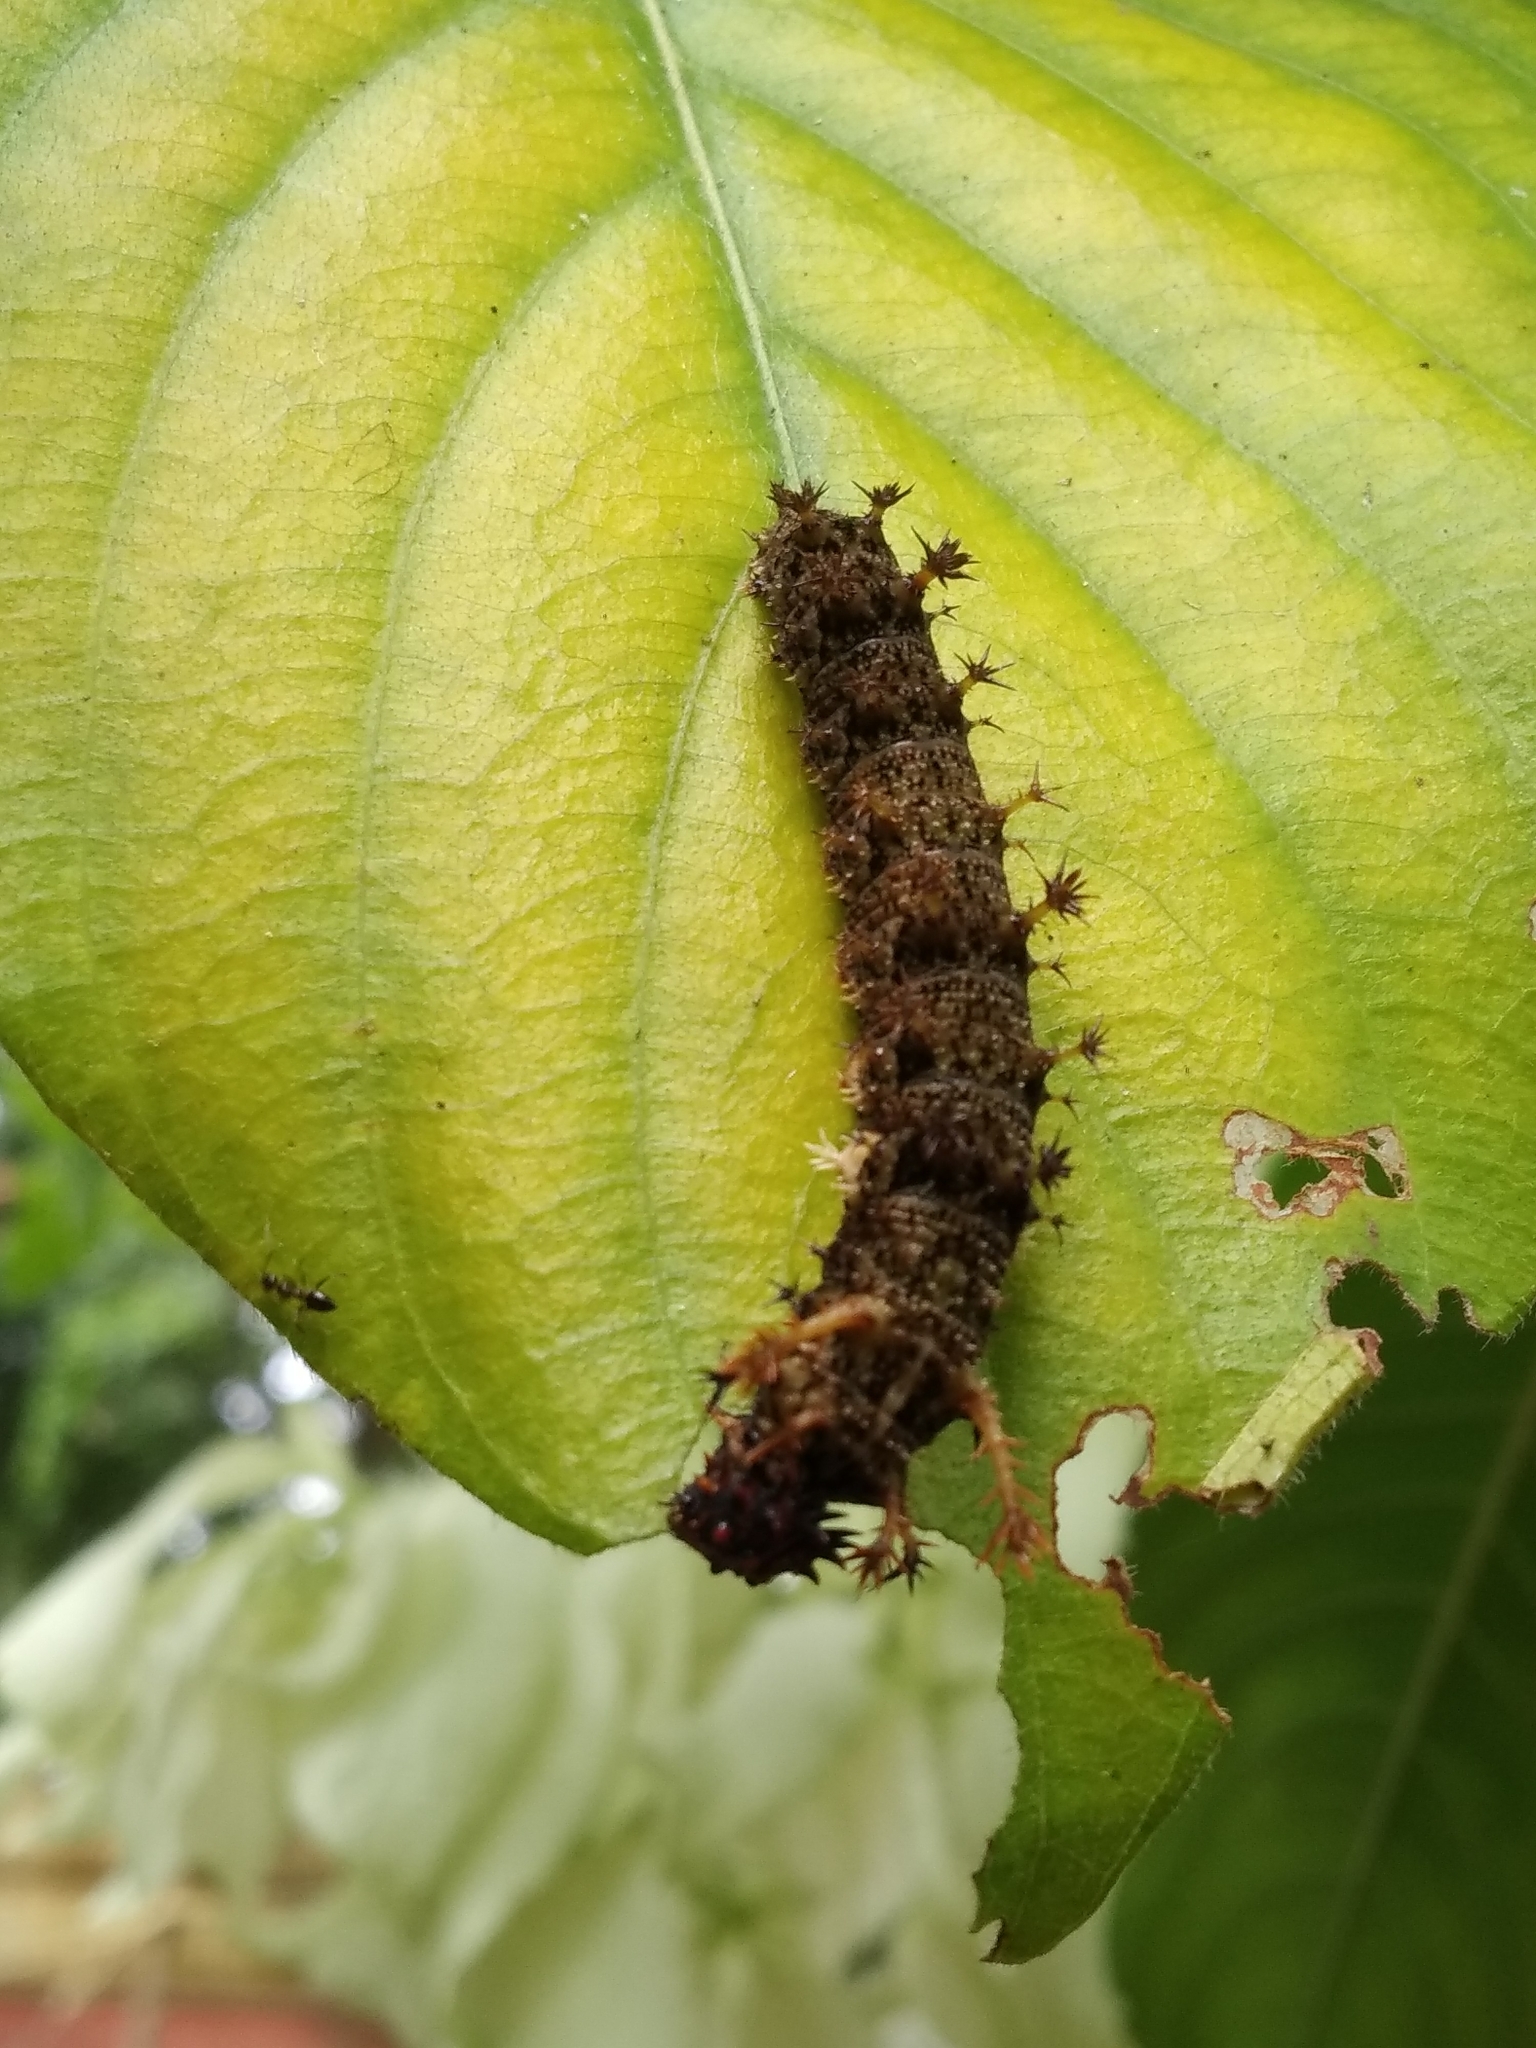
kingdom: Animalia
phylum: Arthropoda
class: Insecta
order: Lepidoptera
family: Nymphalidae
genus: Limenitis
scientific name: Limenitis Moduza procris
